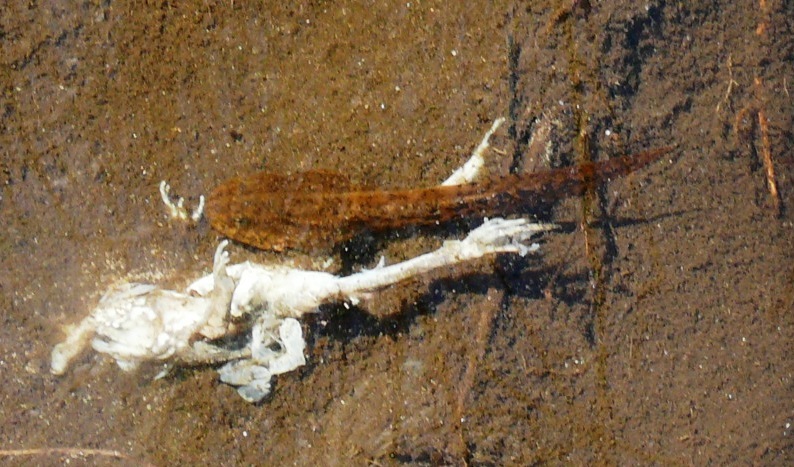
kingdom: Animalia
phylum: Chordata
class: Amphibia
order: Anura
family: Pyxicephalidae
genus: Amietia
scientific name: Amietia fuscigula
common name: Cape rana
